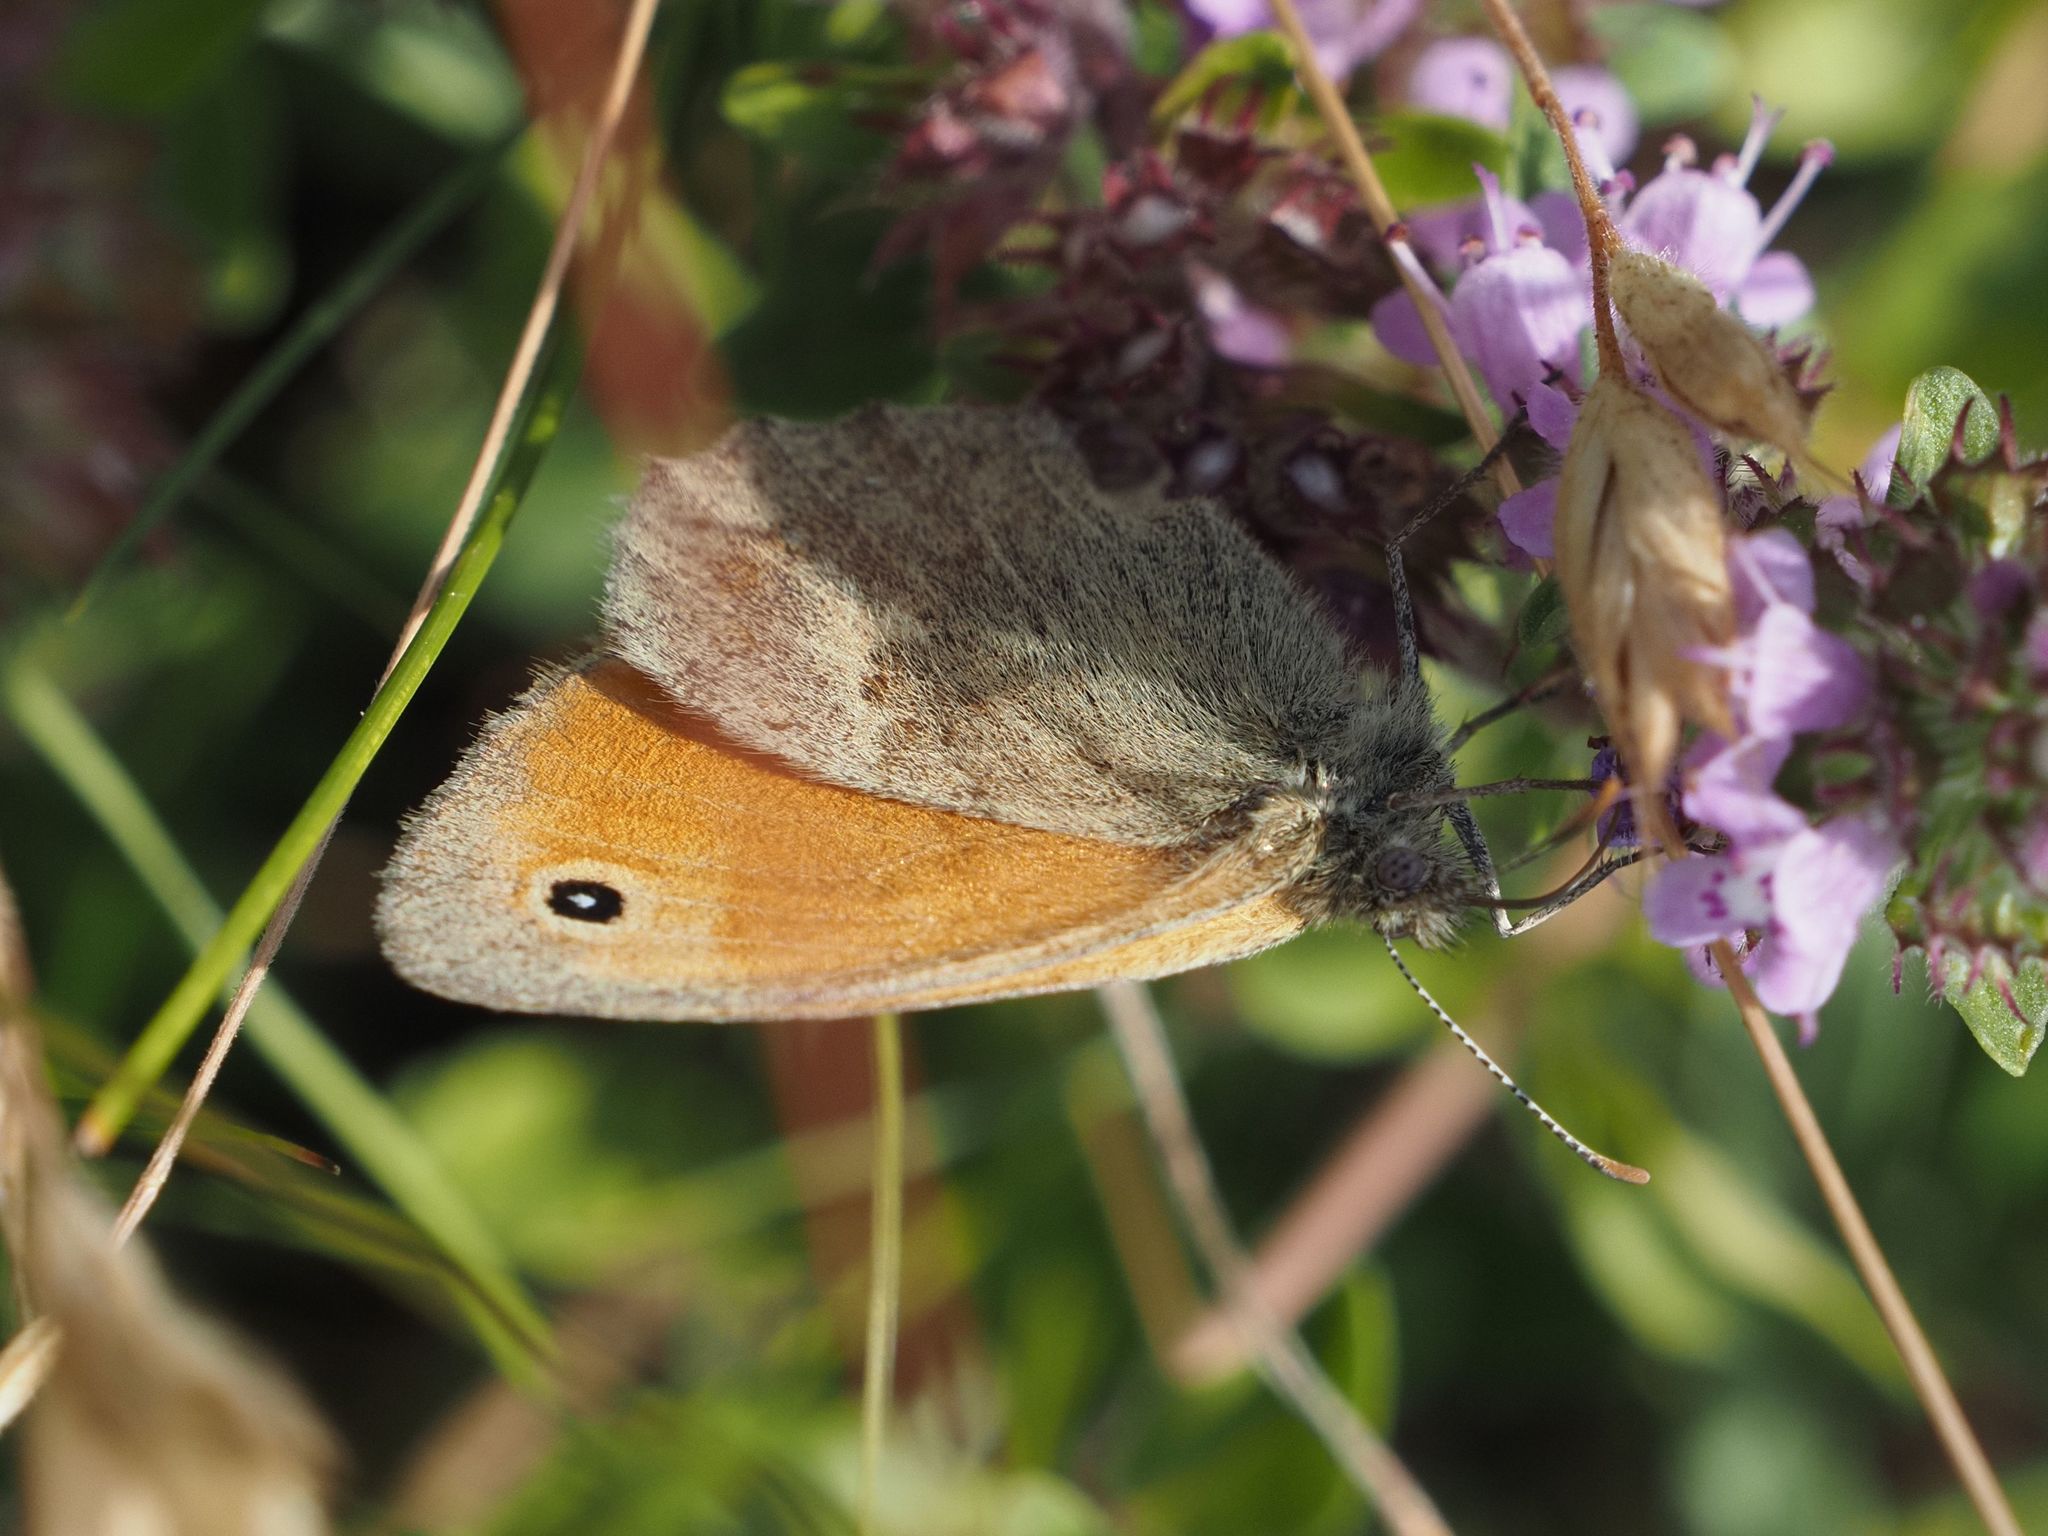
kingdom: Animalia
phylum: Arthropoda
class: Insecta
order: Lepidoptera
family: Nymphalidae
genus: Coenonympha
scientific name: Coenonympha pamphilus
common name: Small heath
